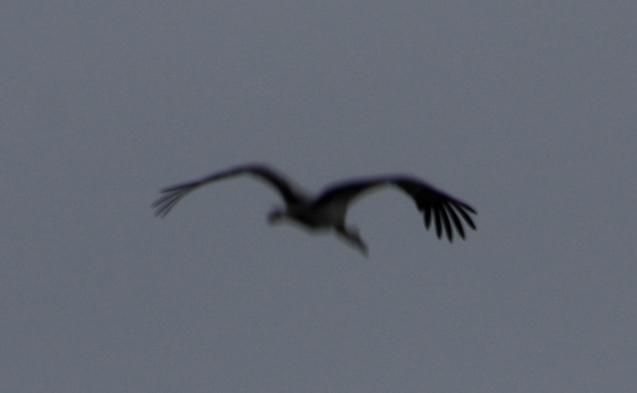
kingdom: Animalia
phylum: Chordata
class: Aves
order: Gruiformes
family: Gruidae
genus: Balearica
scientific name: Balearica regulorum
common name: Grey crowned crane
